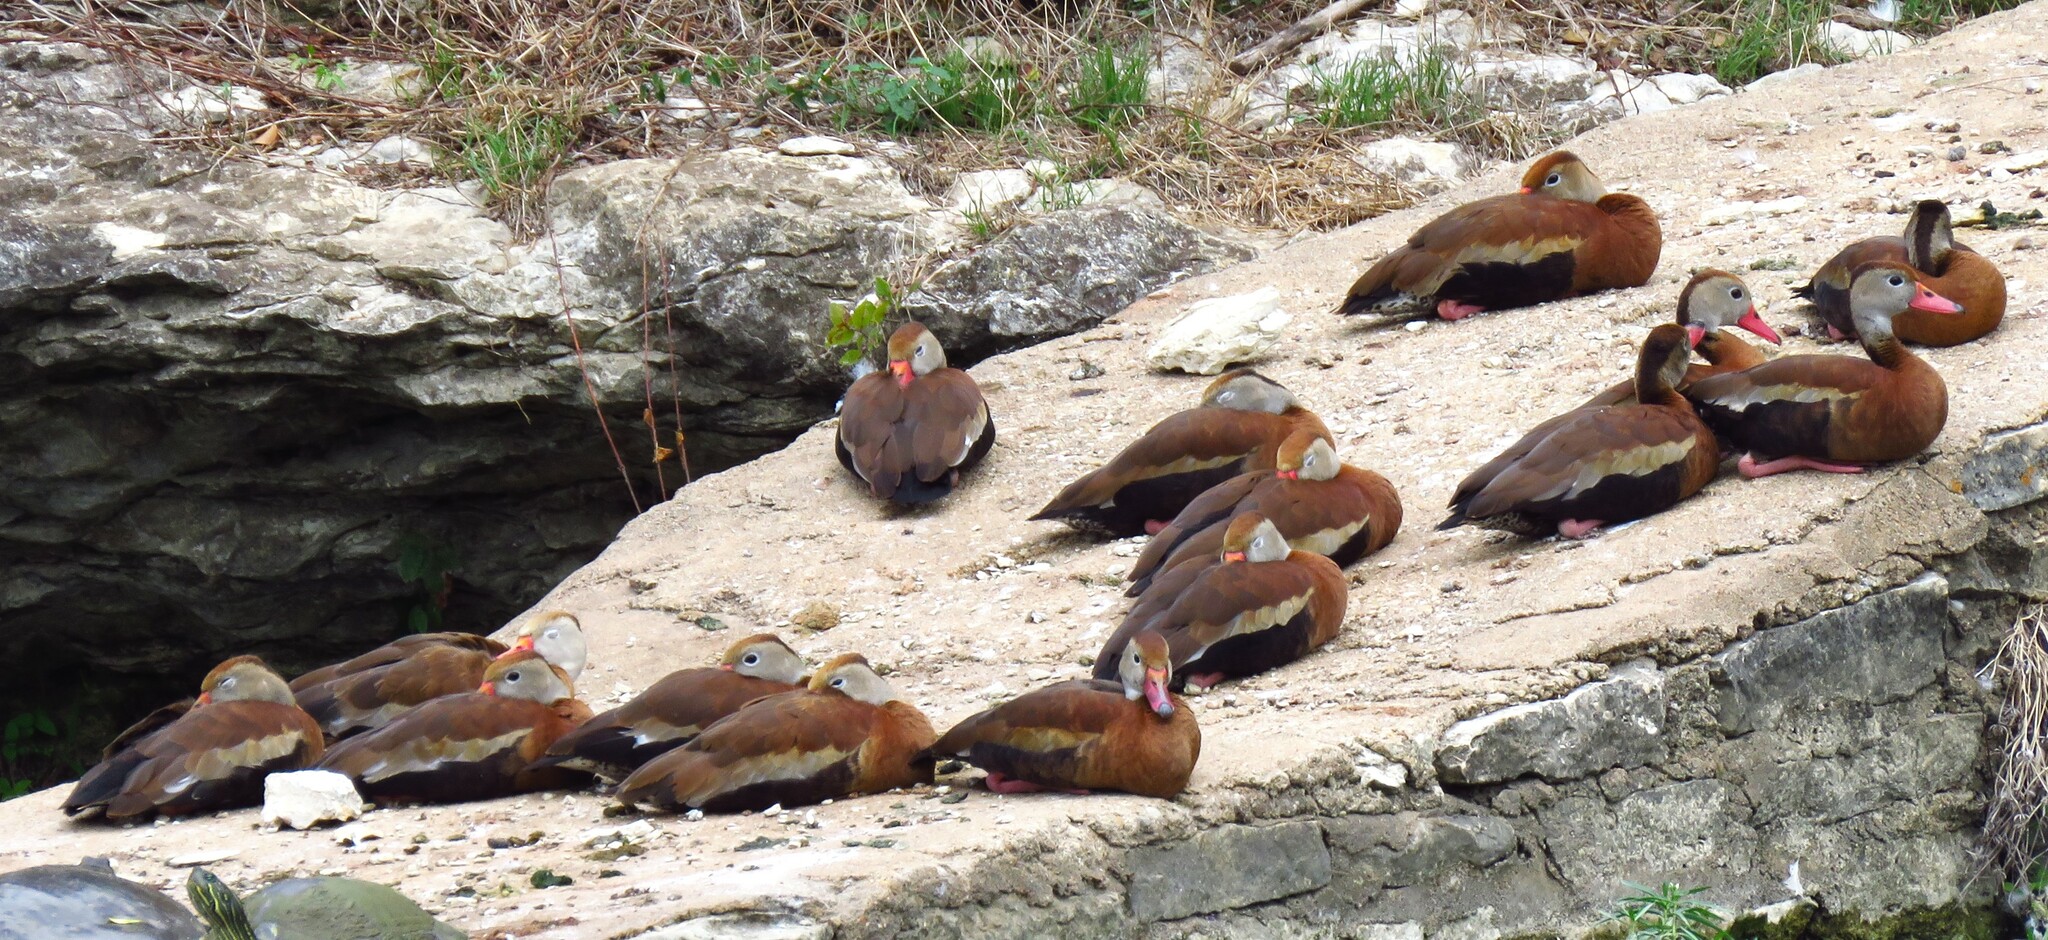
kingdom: Animalia
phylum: Chordata
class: Aves
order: Anseriformes
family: Anatidae
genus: Dendrocygna
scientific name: Dendrocygna autumnalis
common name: Black-bellied whistling duck
